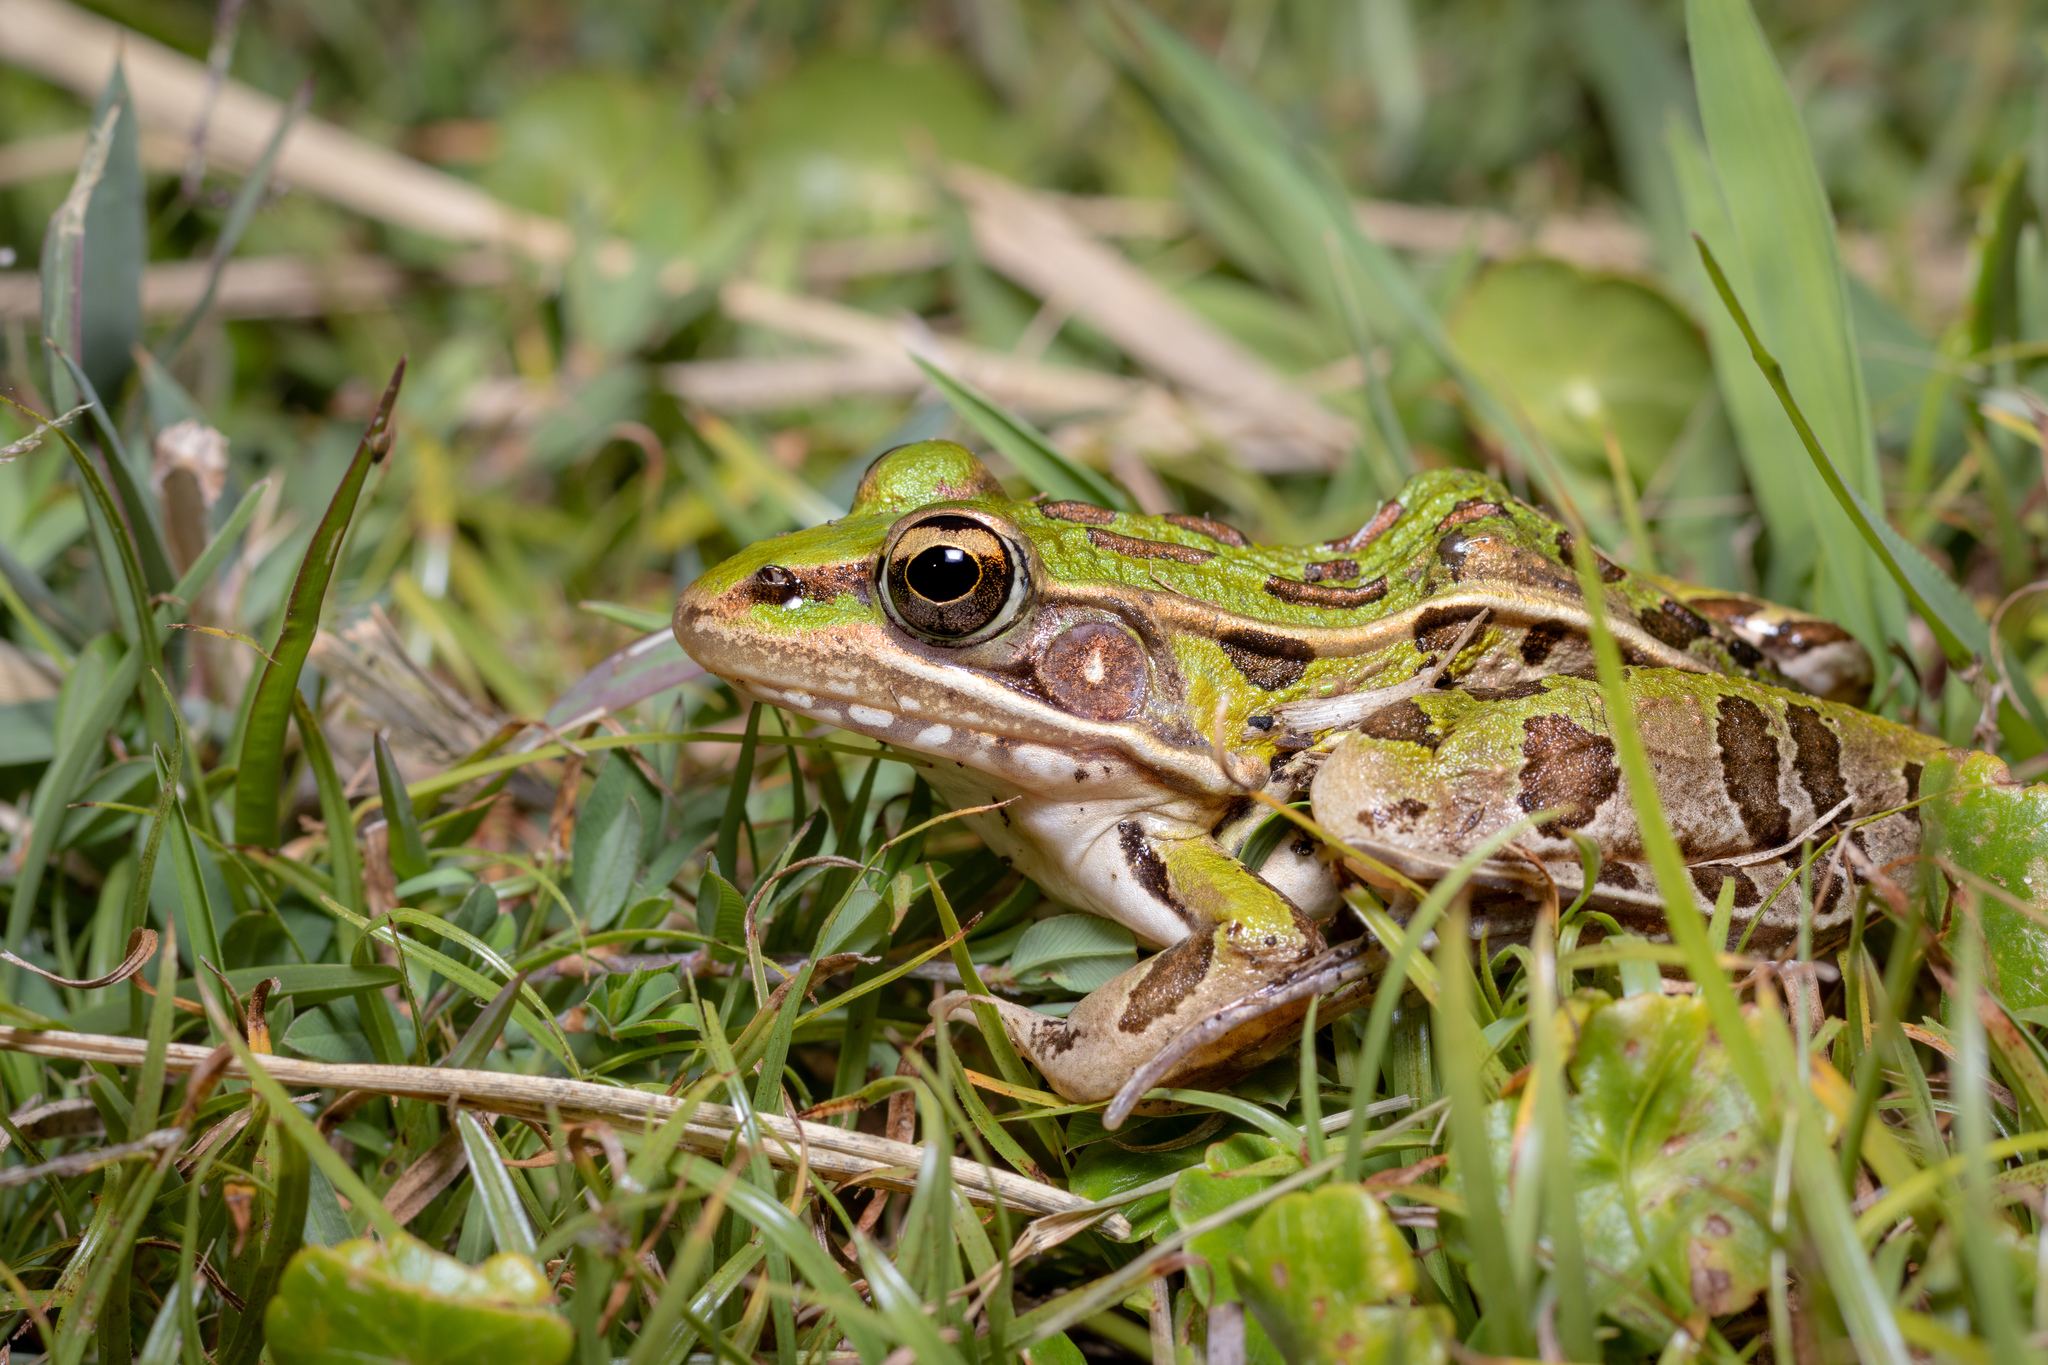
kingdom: Animalia
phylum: Chordata
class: Amphibia
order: Anura
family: Ranidae
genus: Lithobates
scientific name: Lithobates sphenocephalus
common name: Southern leopard frog
